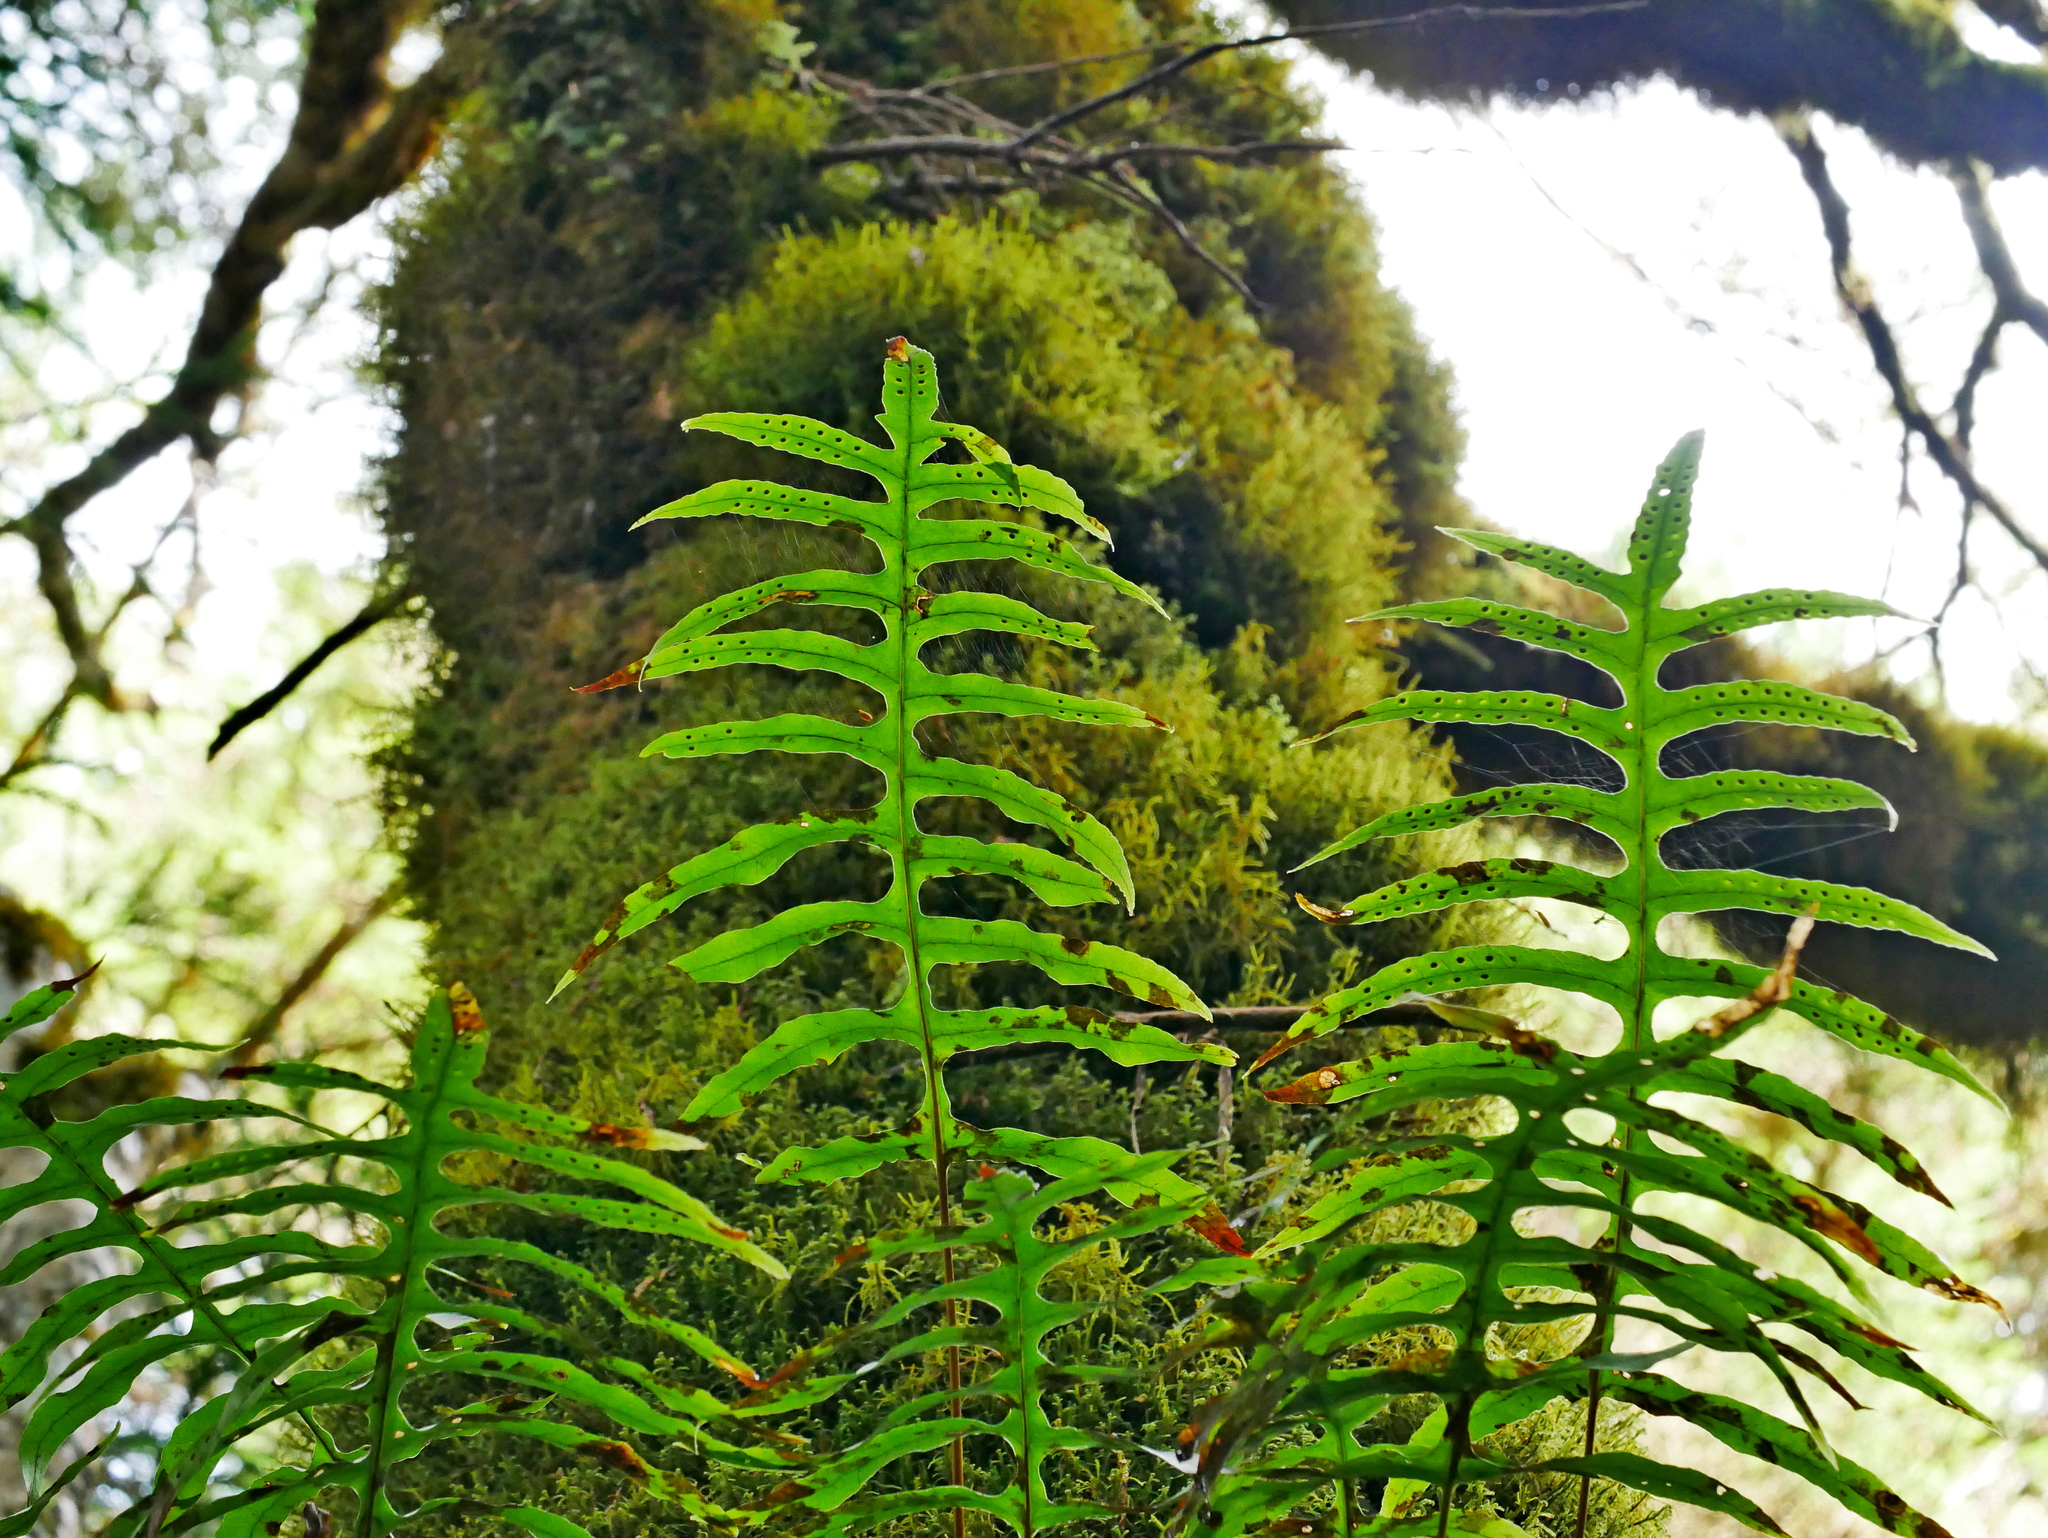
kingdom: Plantae
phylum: Tracheophyta
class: Polypodiopsida
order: Polypodiales
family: Polypodiaceae
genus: Selliguea
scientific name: Selliguea echinospora
